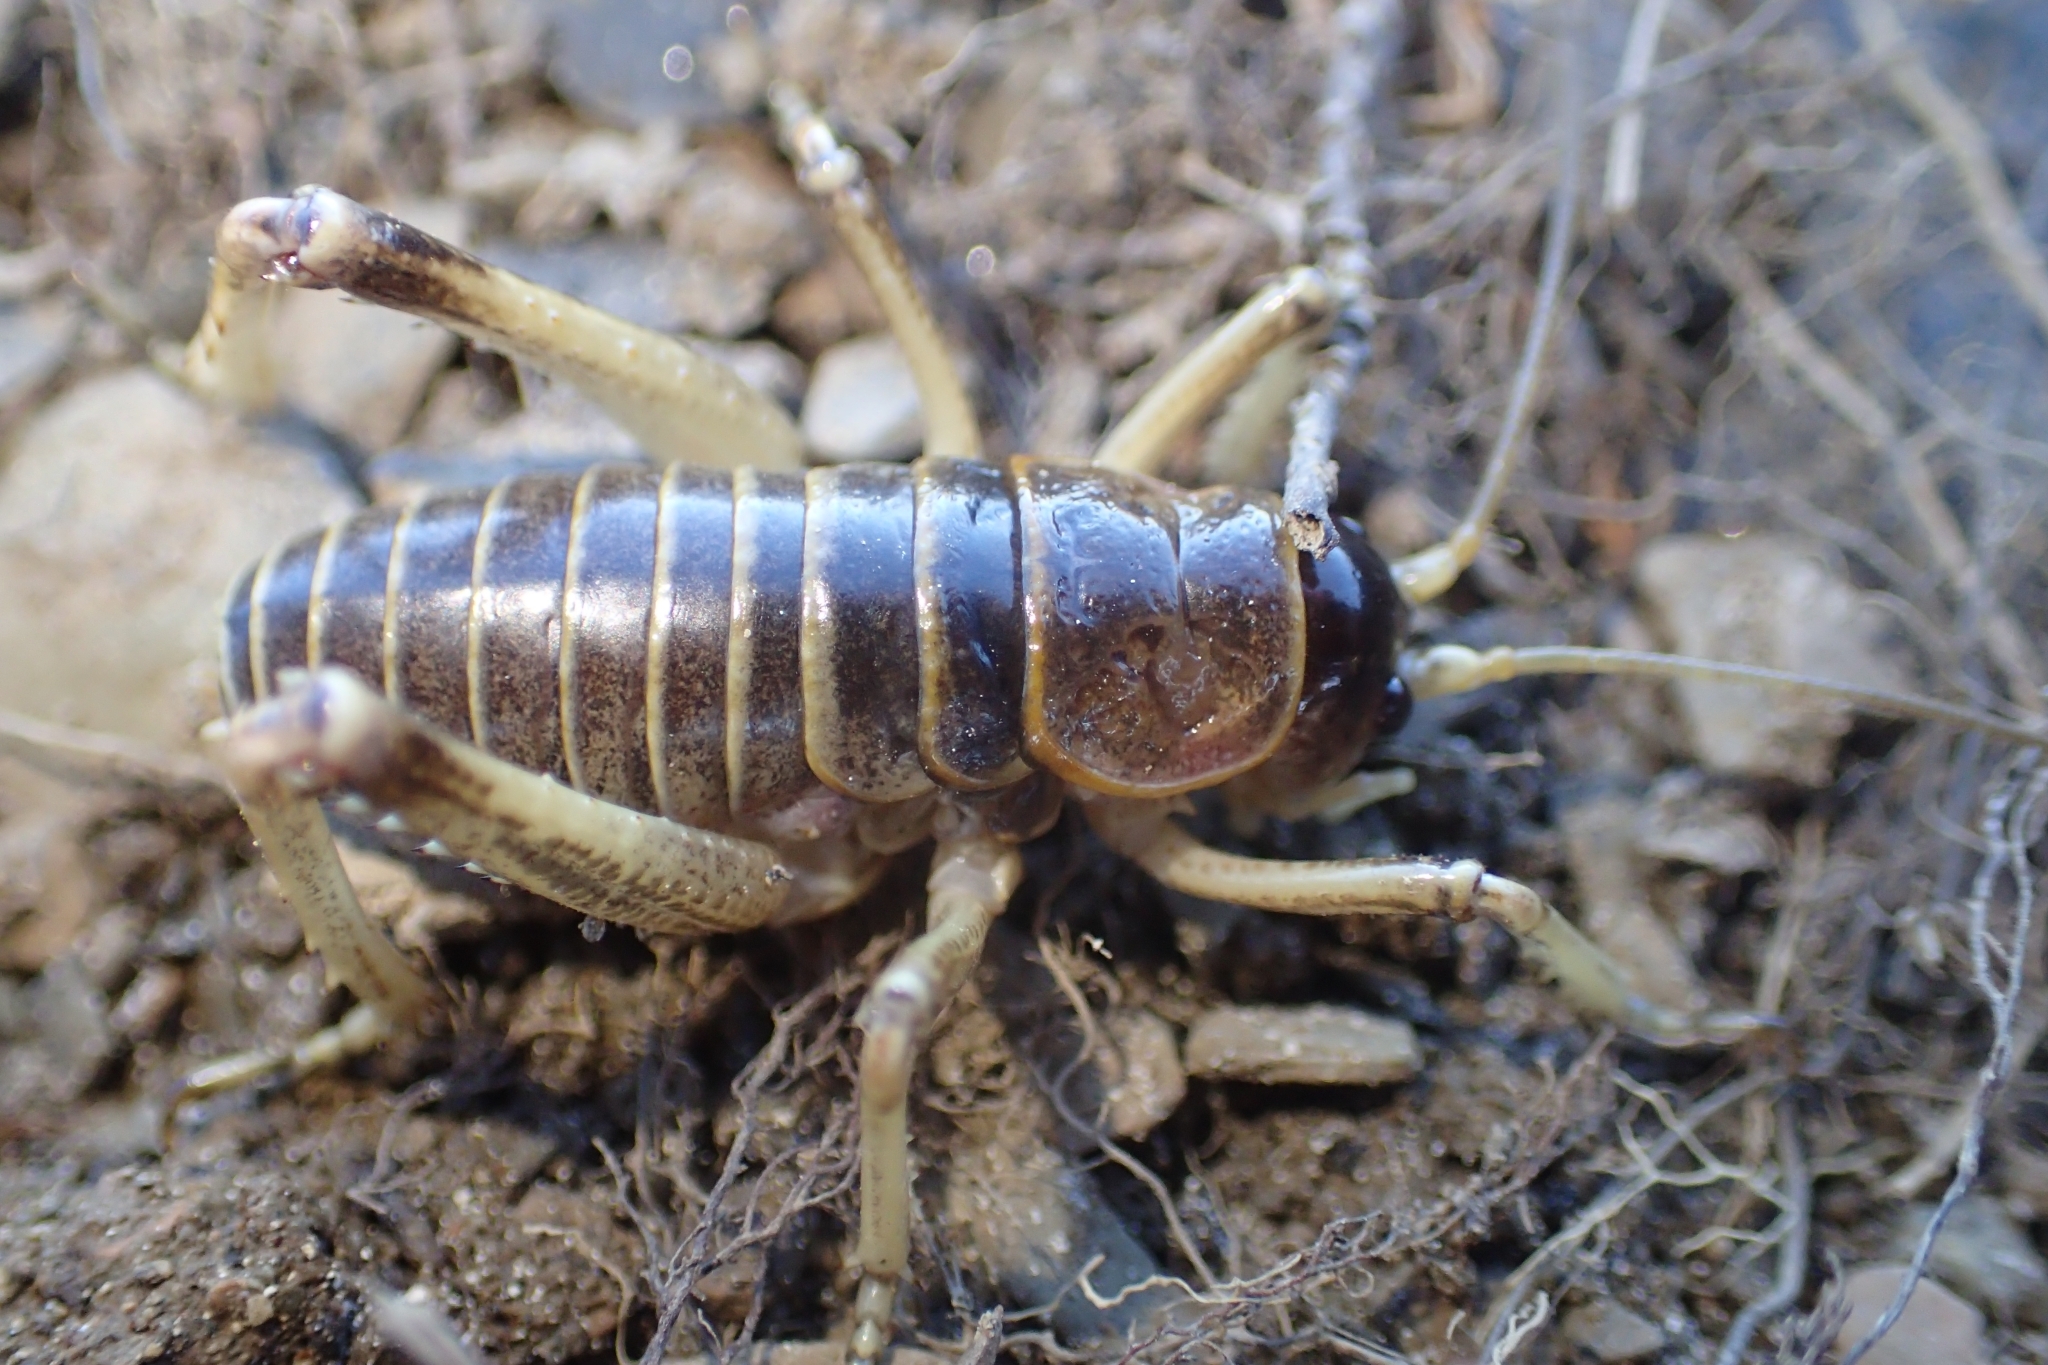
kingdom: Animalia
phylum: Arthropoda
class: Insecta
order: Orthoptera
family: Anostostomatidae
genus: Deinacrida
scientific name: Deinacrida connectens
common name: Scree weta
